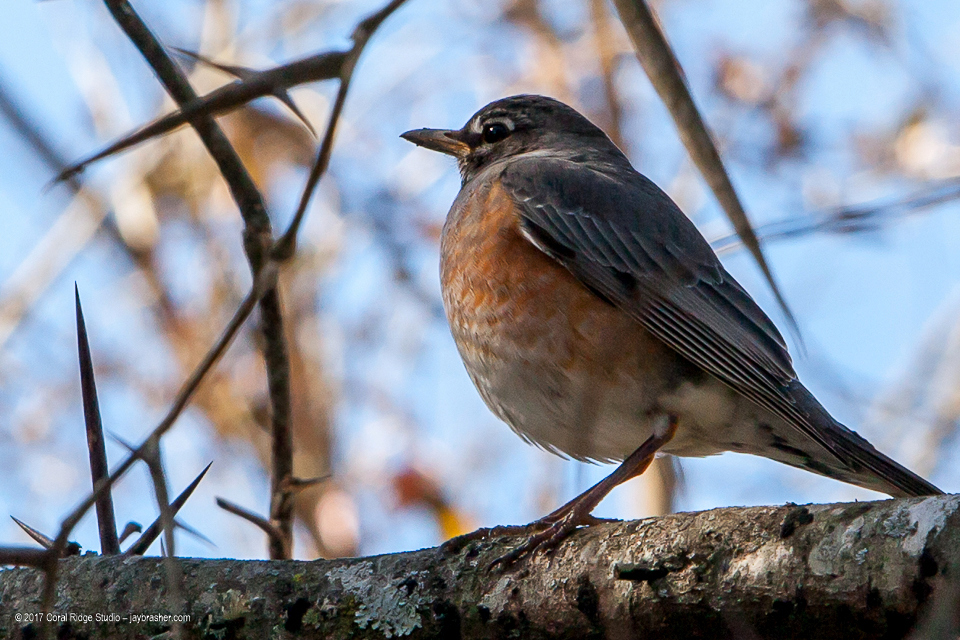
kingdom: Animalia
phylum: Chordata
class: Aves
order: Passeriformes
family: Turdidae
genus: Turdus
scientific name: Turdus migratorius
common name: American robin
